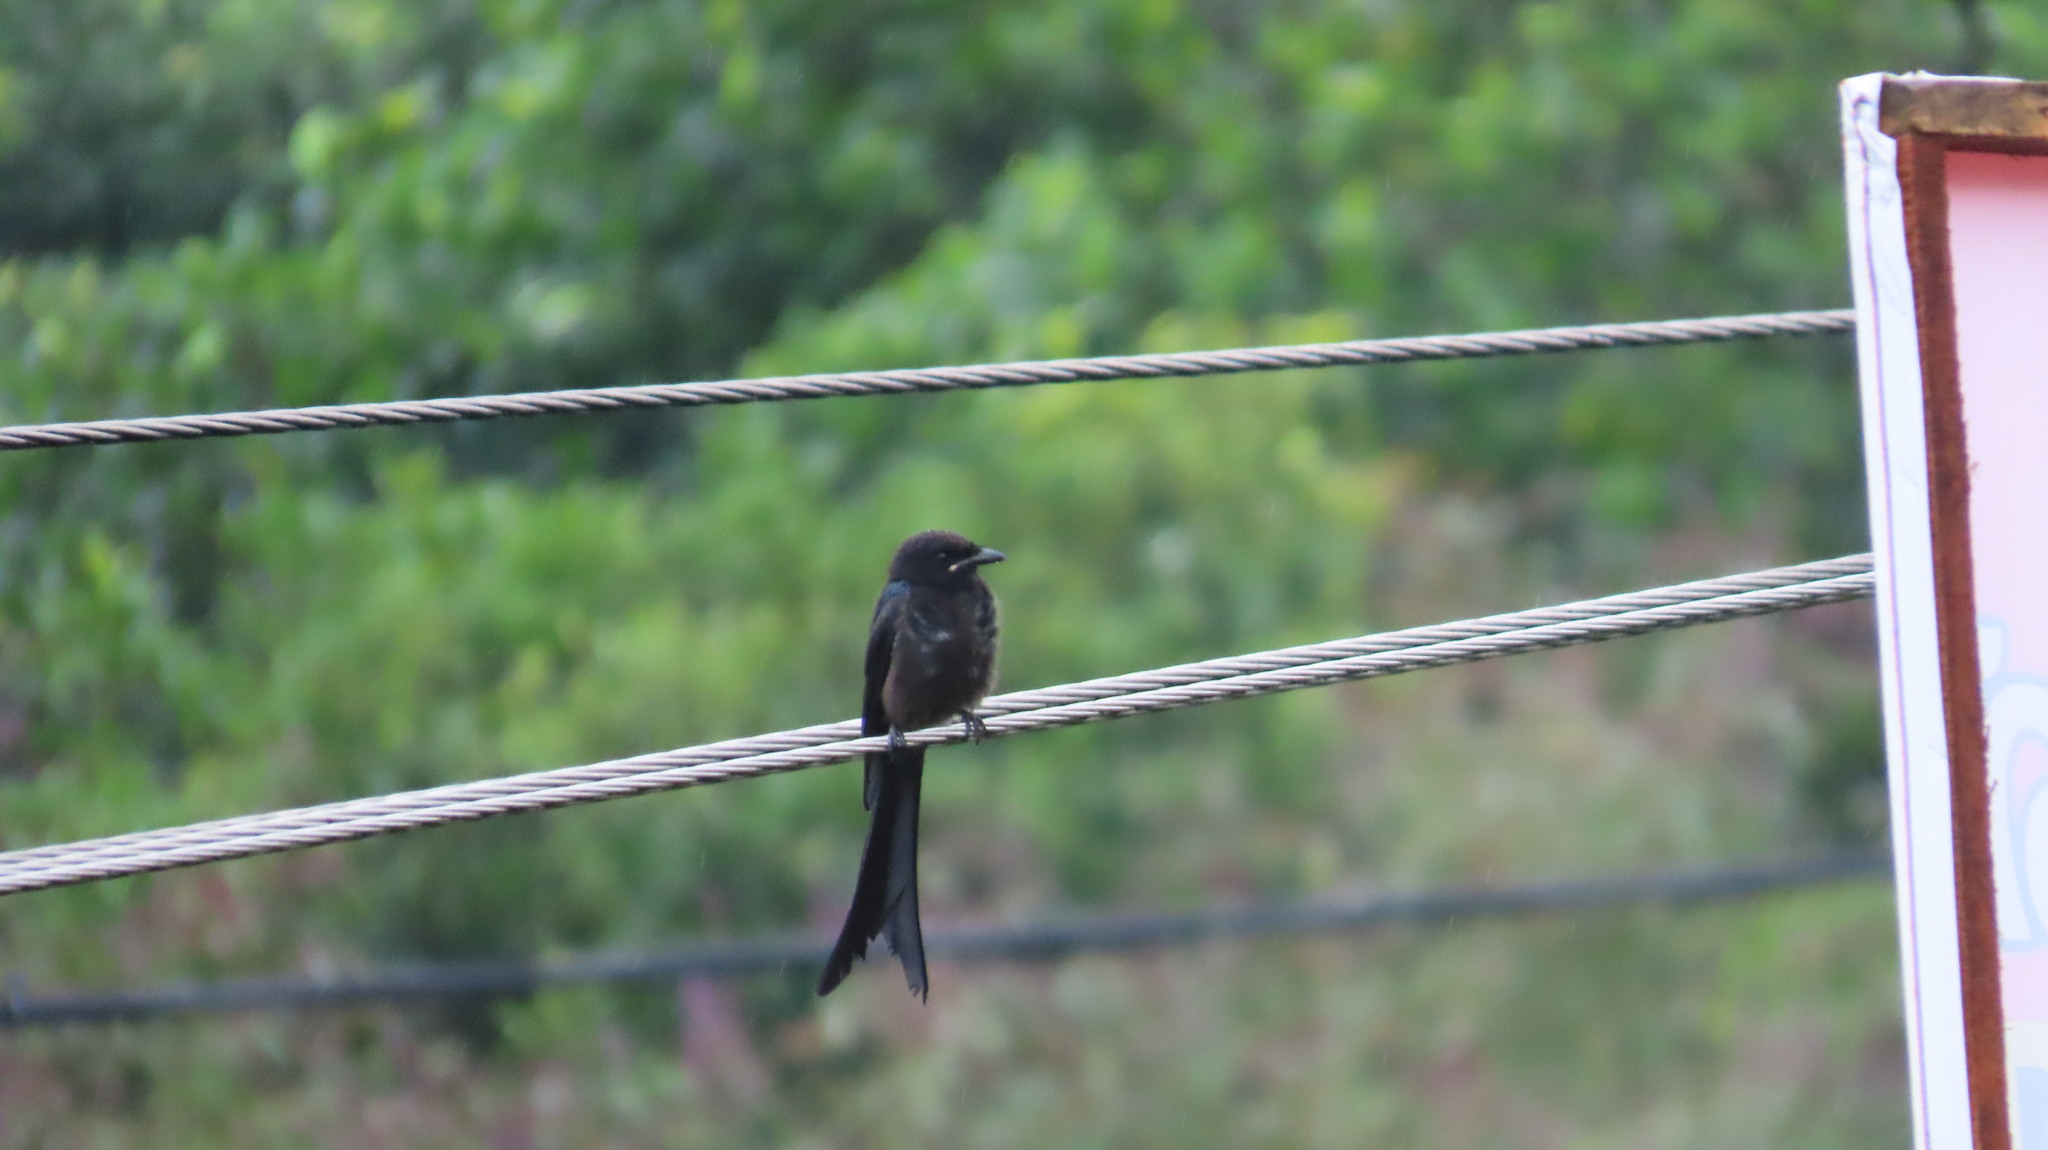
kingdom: Animalia
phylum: Chordata
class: Aves
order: Passeriformes
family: Dicruridae
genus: Dicrurus
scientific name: Dicrurus macrocercus
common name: Black drongo
